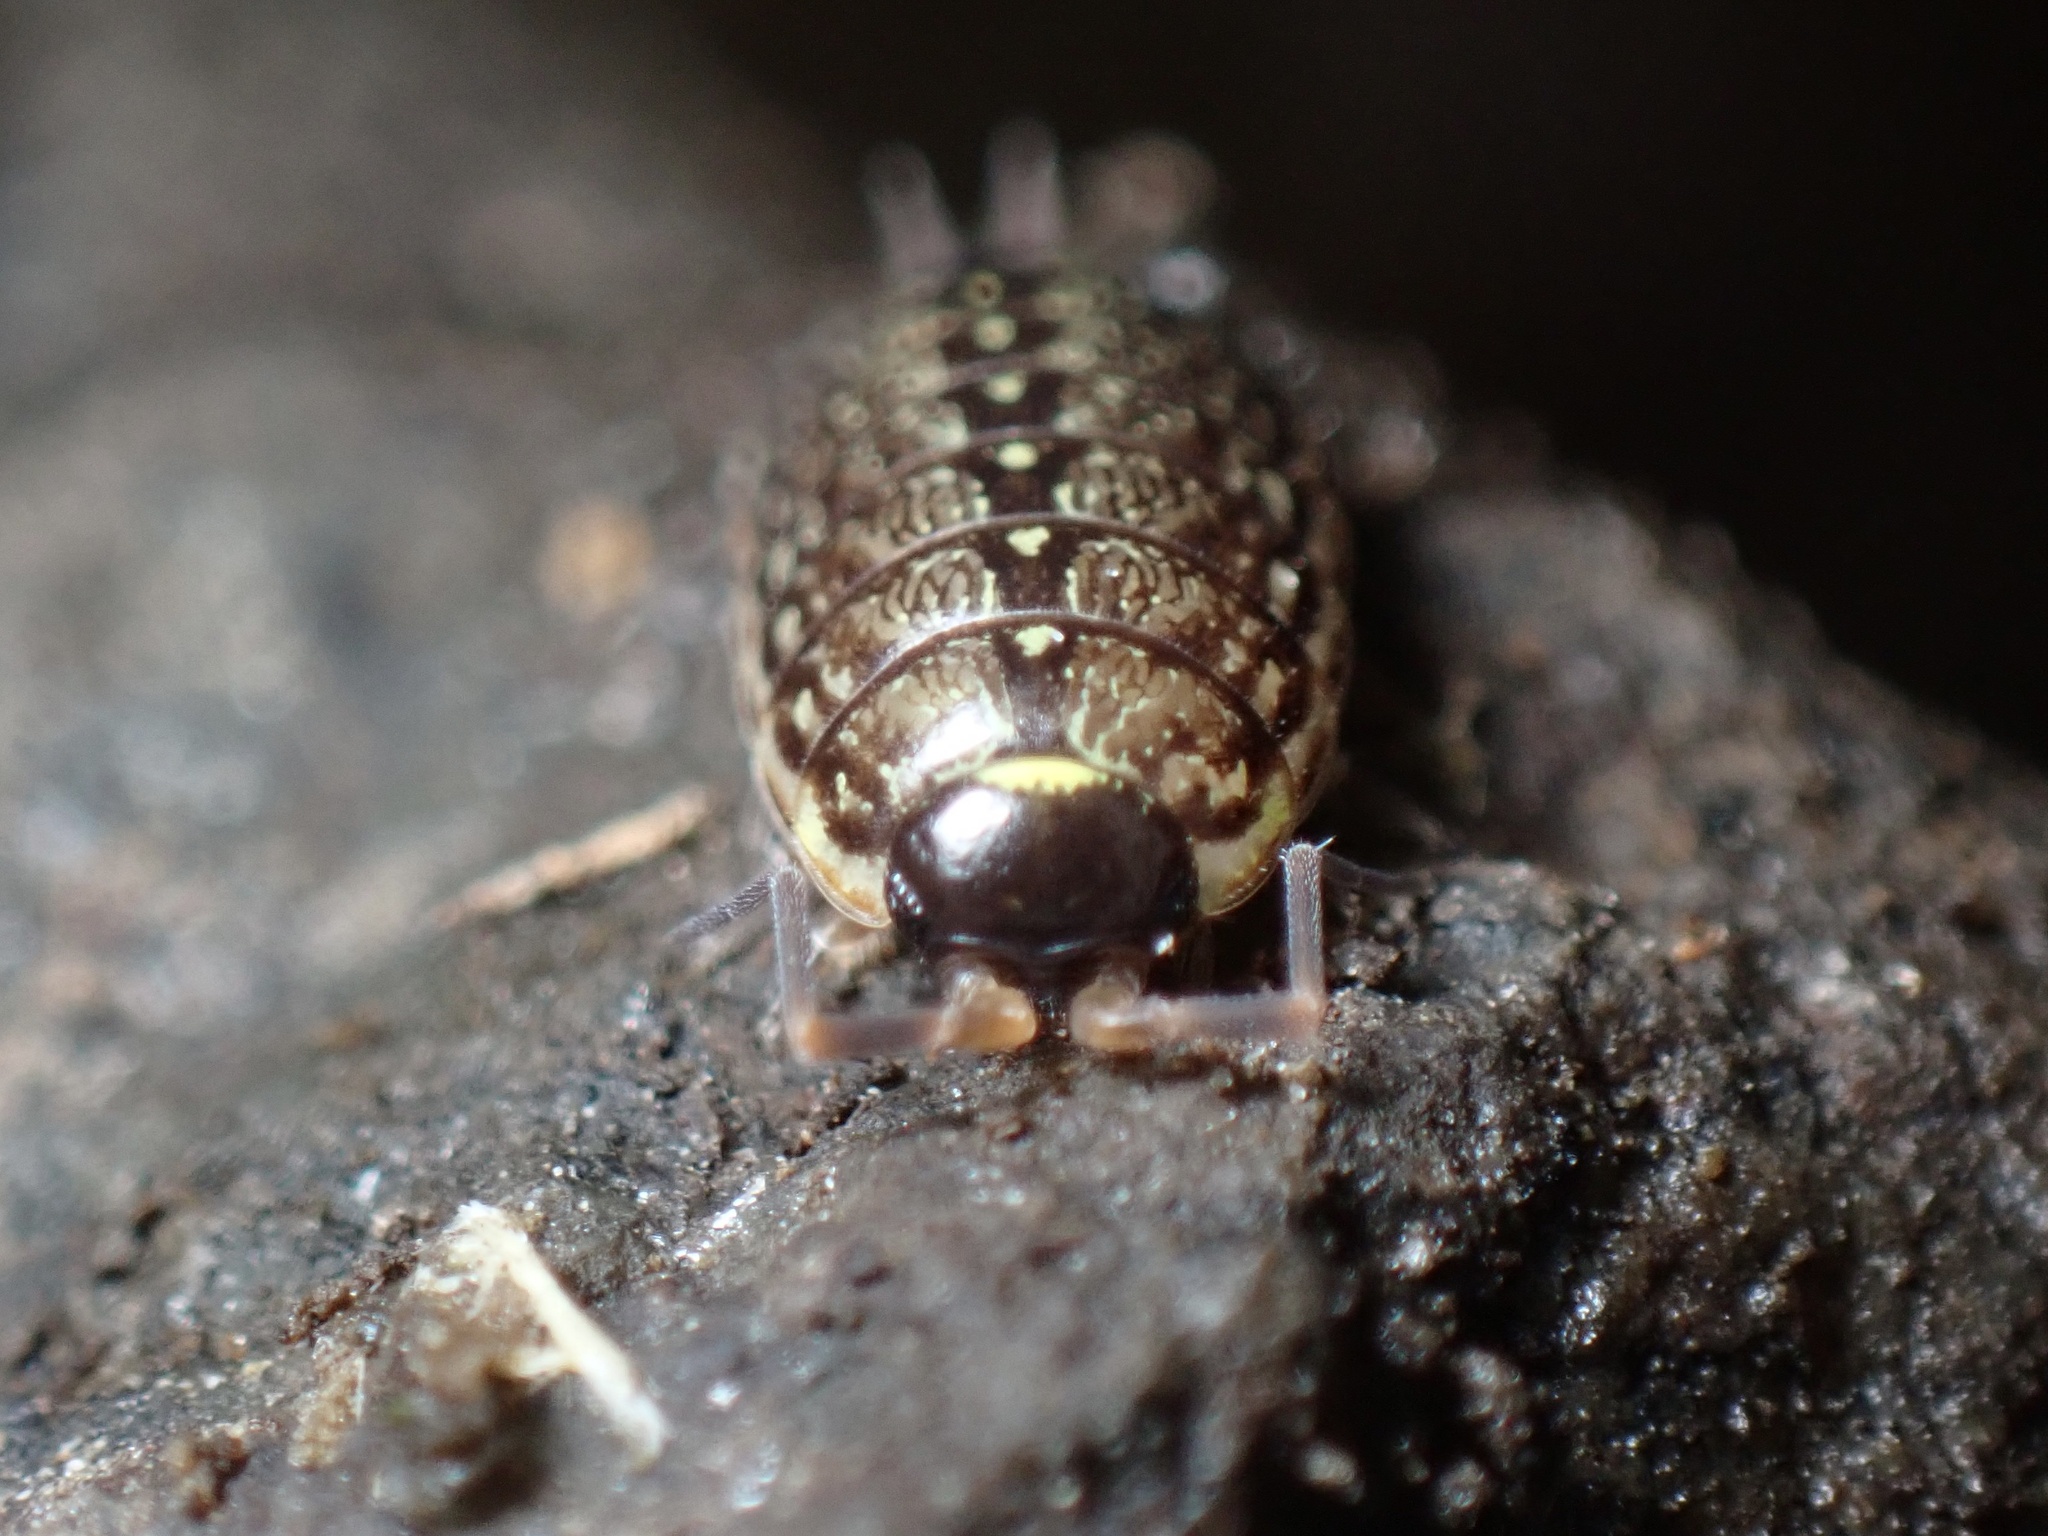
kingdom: Animalia
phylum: Arthropoda
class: Malacostraca
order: Isopoda
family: Philosciidae
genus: Philoscia
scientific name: Philoscia muscorum
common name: Common striped woodlouse
